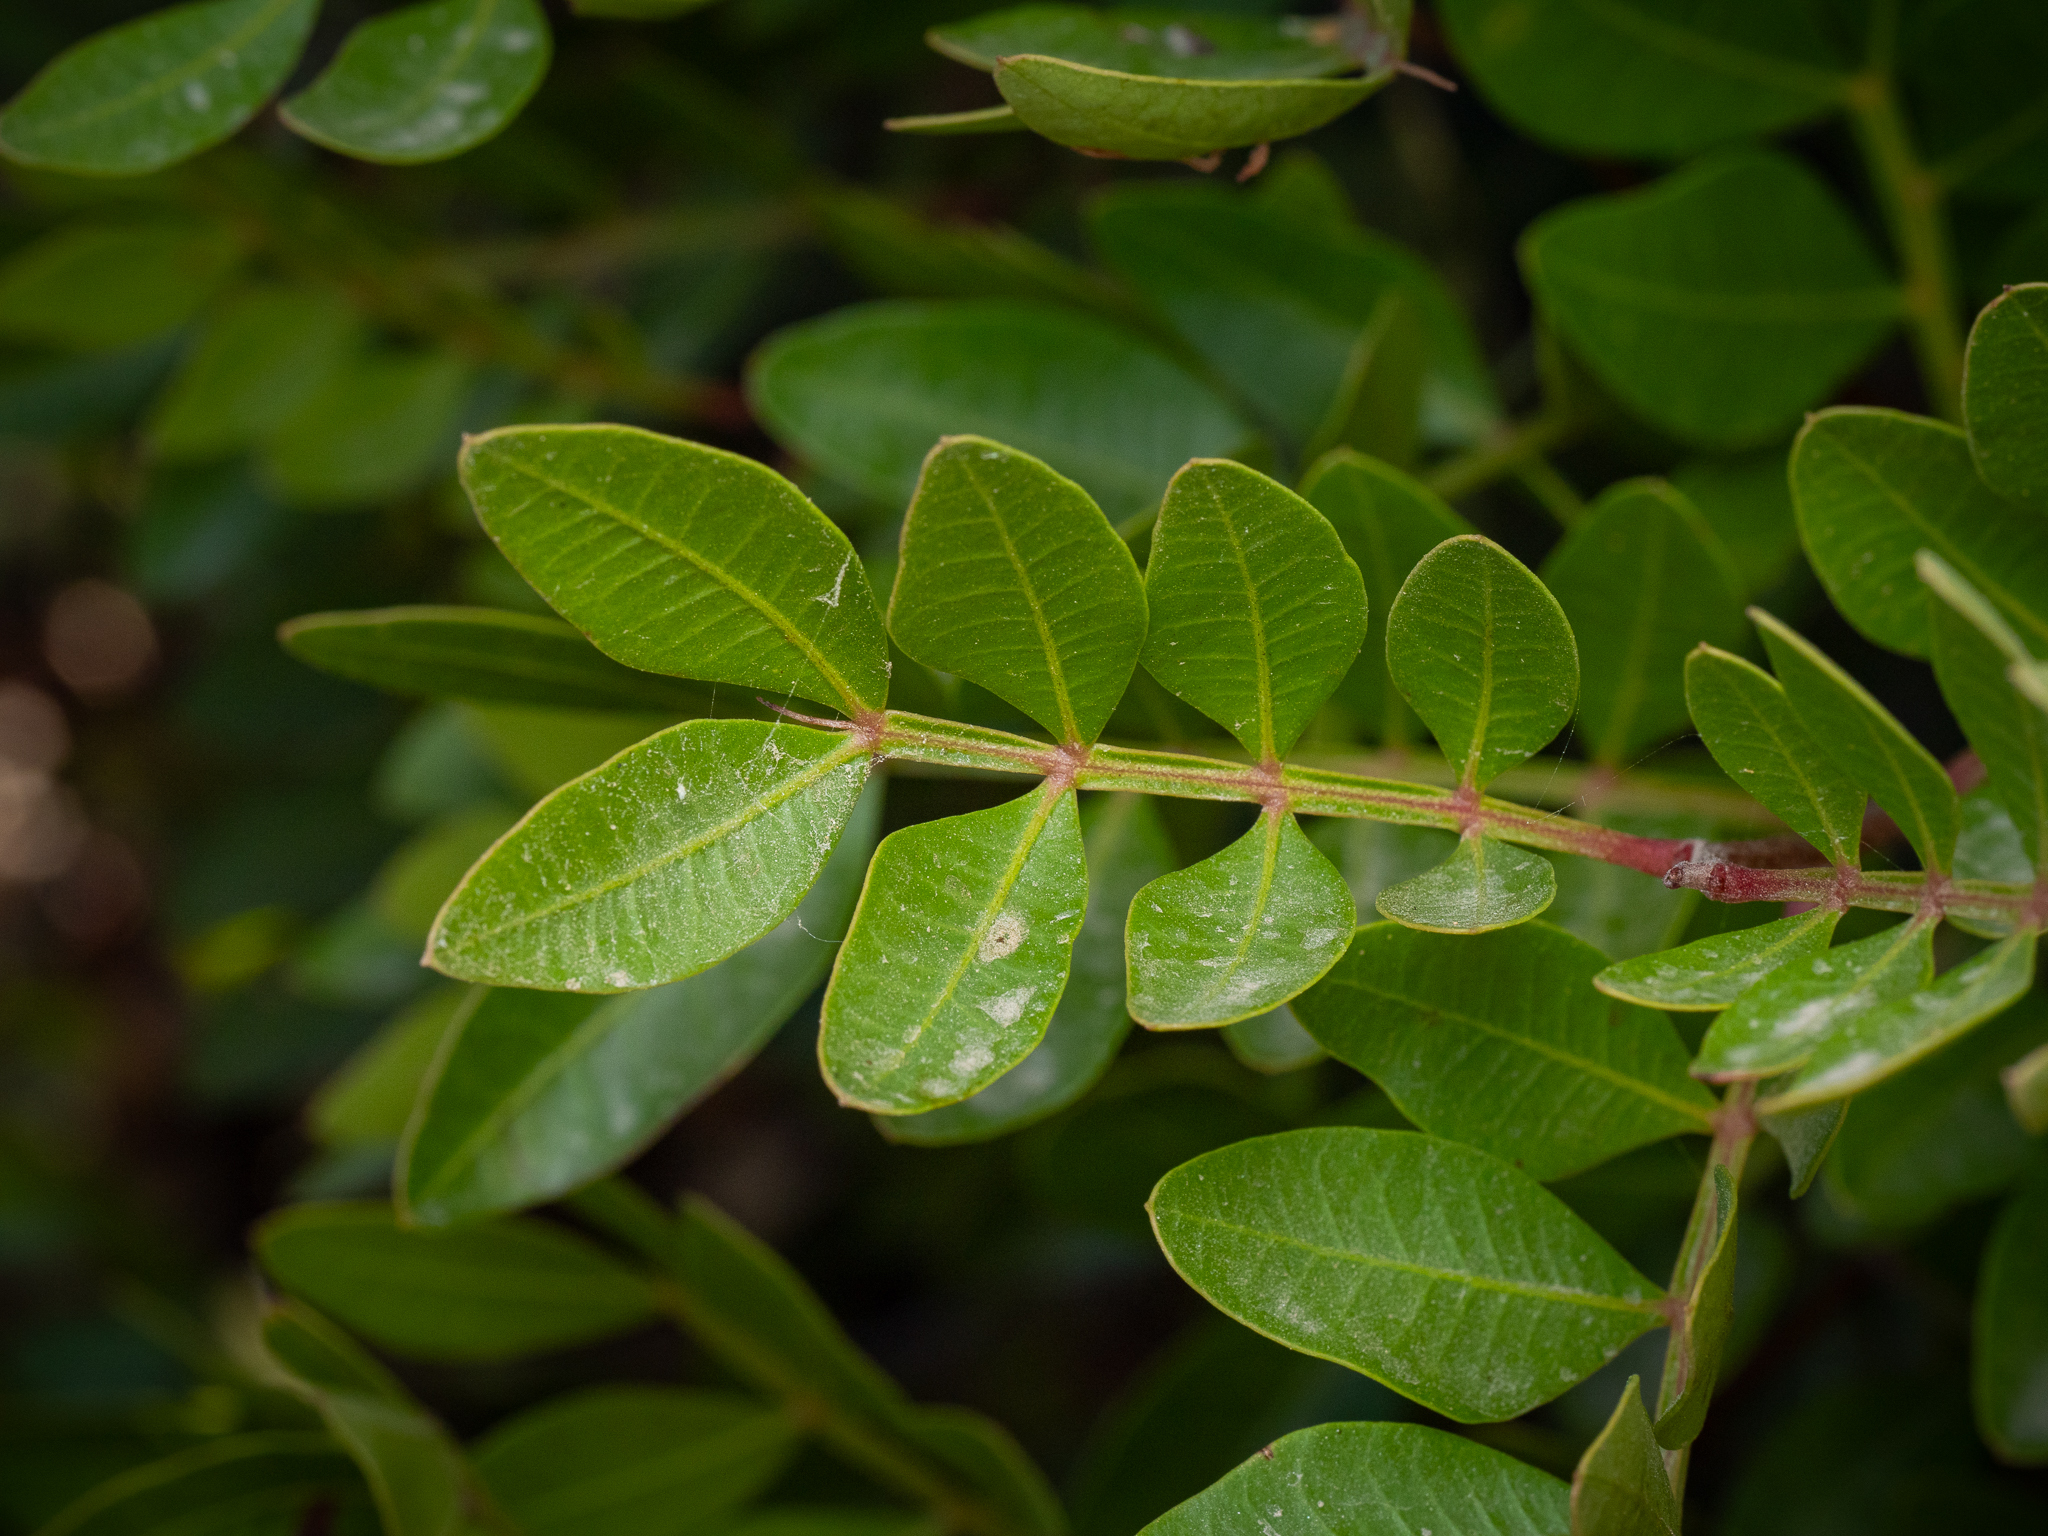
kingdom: Plantae
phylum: Tracheophyta
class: Magnoliopsida
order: Sapindales
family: Anacardiaceae
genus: Pistacia
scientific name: Pistacia lentiscus
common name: Lentisk
